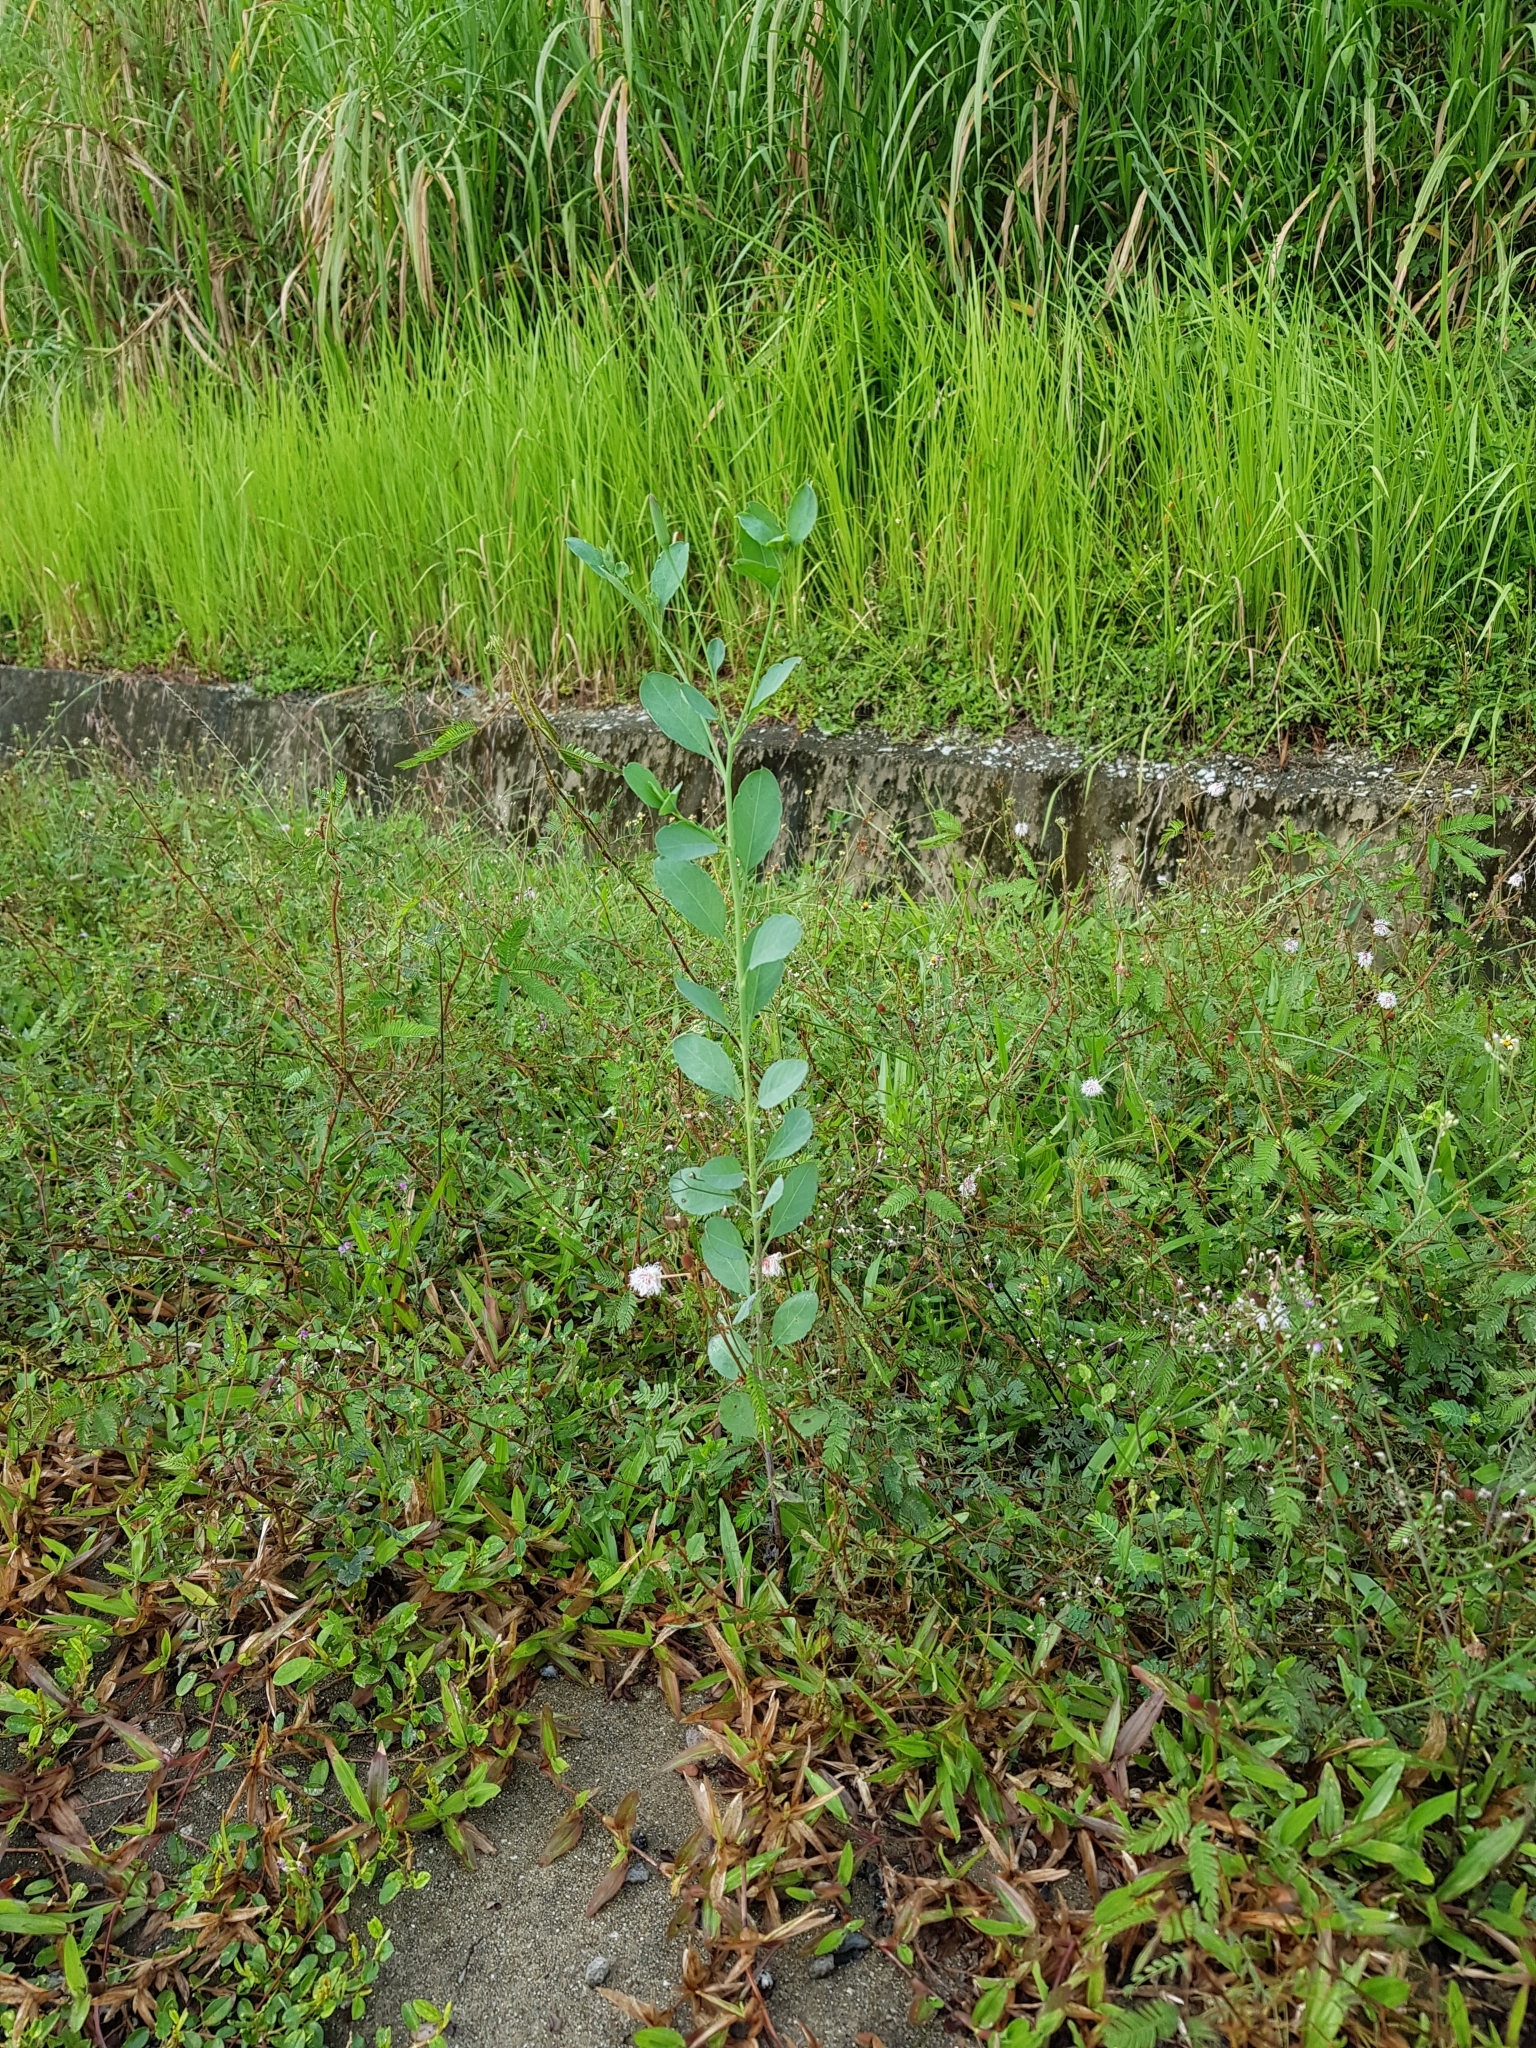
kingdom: Plantae
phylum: Tracheophyta
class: Magnoliopsida
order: Asterales
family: Asteraceae
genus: Porophyllum
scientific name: Porophyllum ruderale
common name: Yerba porosa
